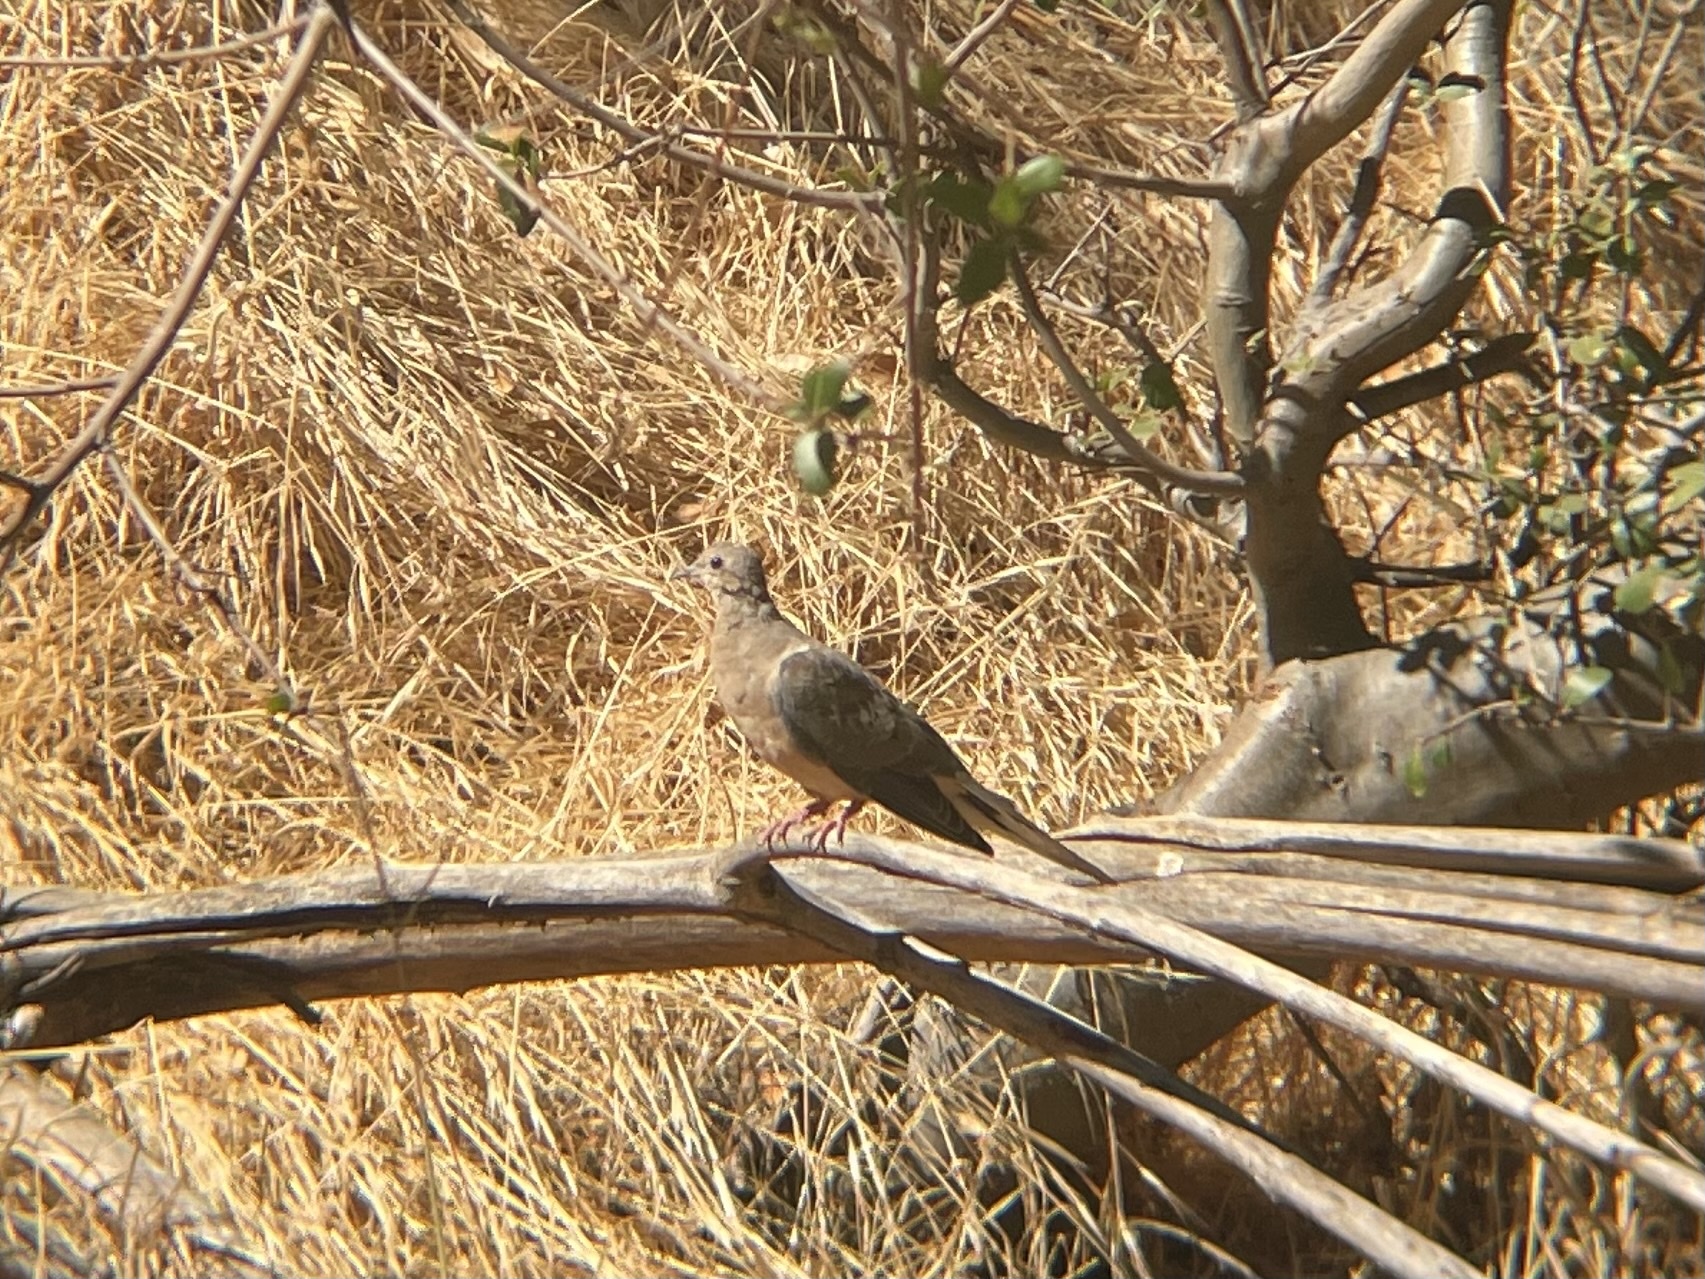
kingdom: Animalia
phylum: Chordata
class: Aves
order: Columbiformes
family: Columbidae
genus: Zenaida
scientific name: Zenaida macroura
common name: Mourning dove
